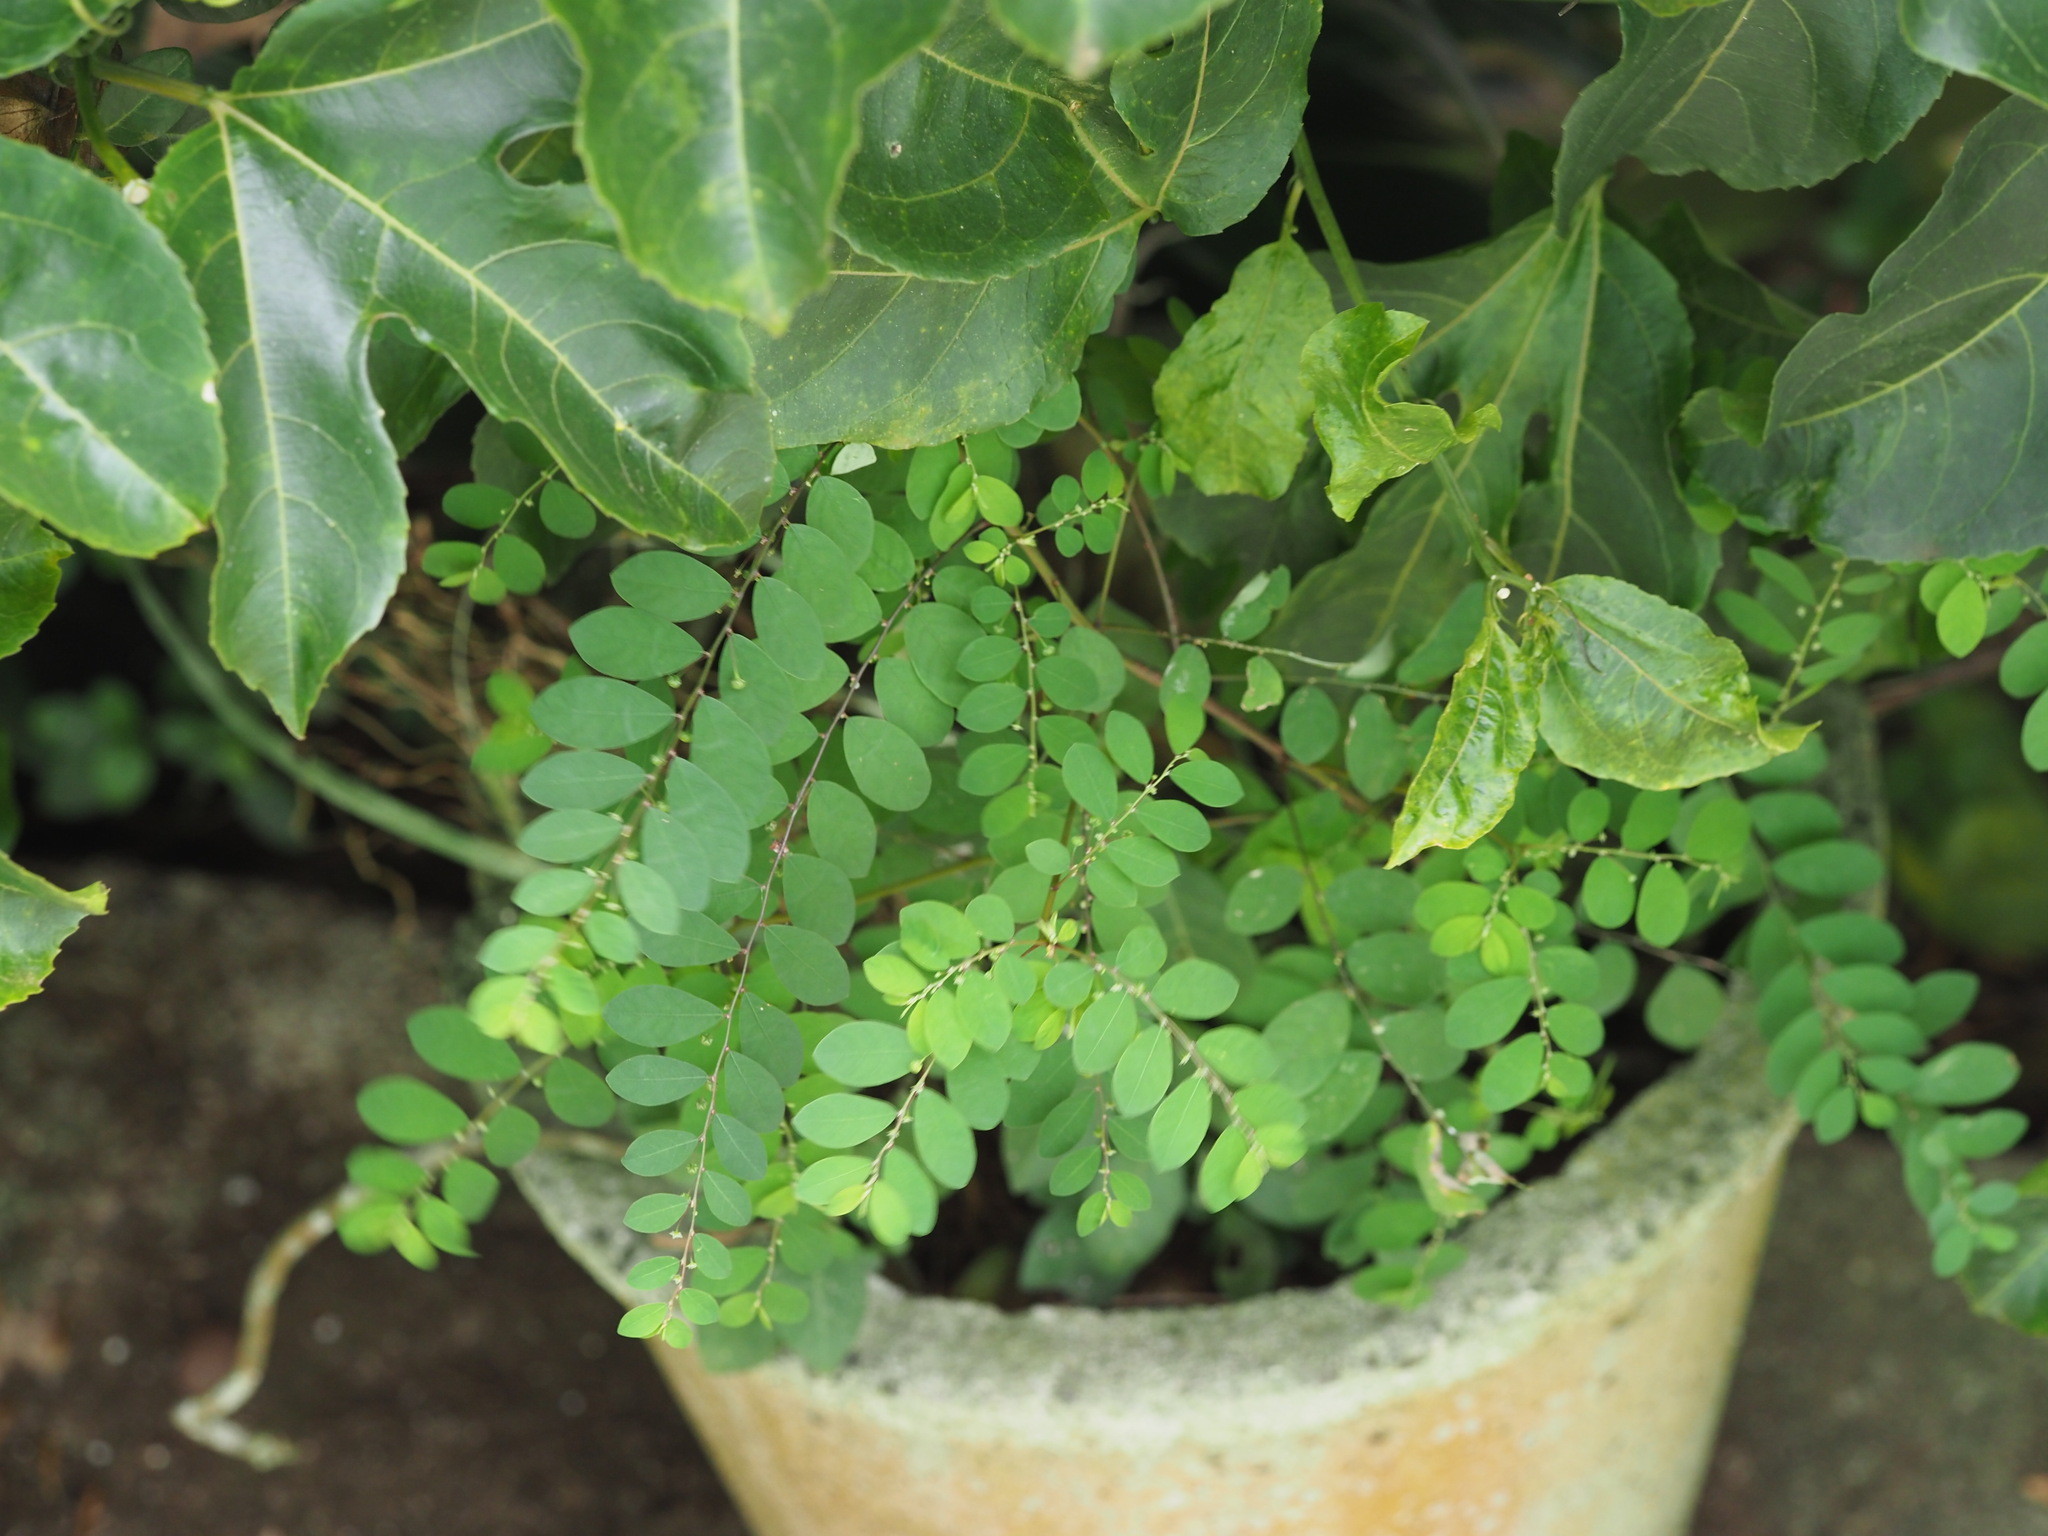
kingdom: Plantae
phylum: Tracheophyta
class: Magnoliopsida
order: Malpighiales
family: Phyllanthaceae
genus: Phyllanthus
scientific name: Phyllanthus tenellus
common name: Mascarene island leaf-flower
